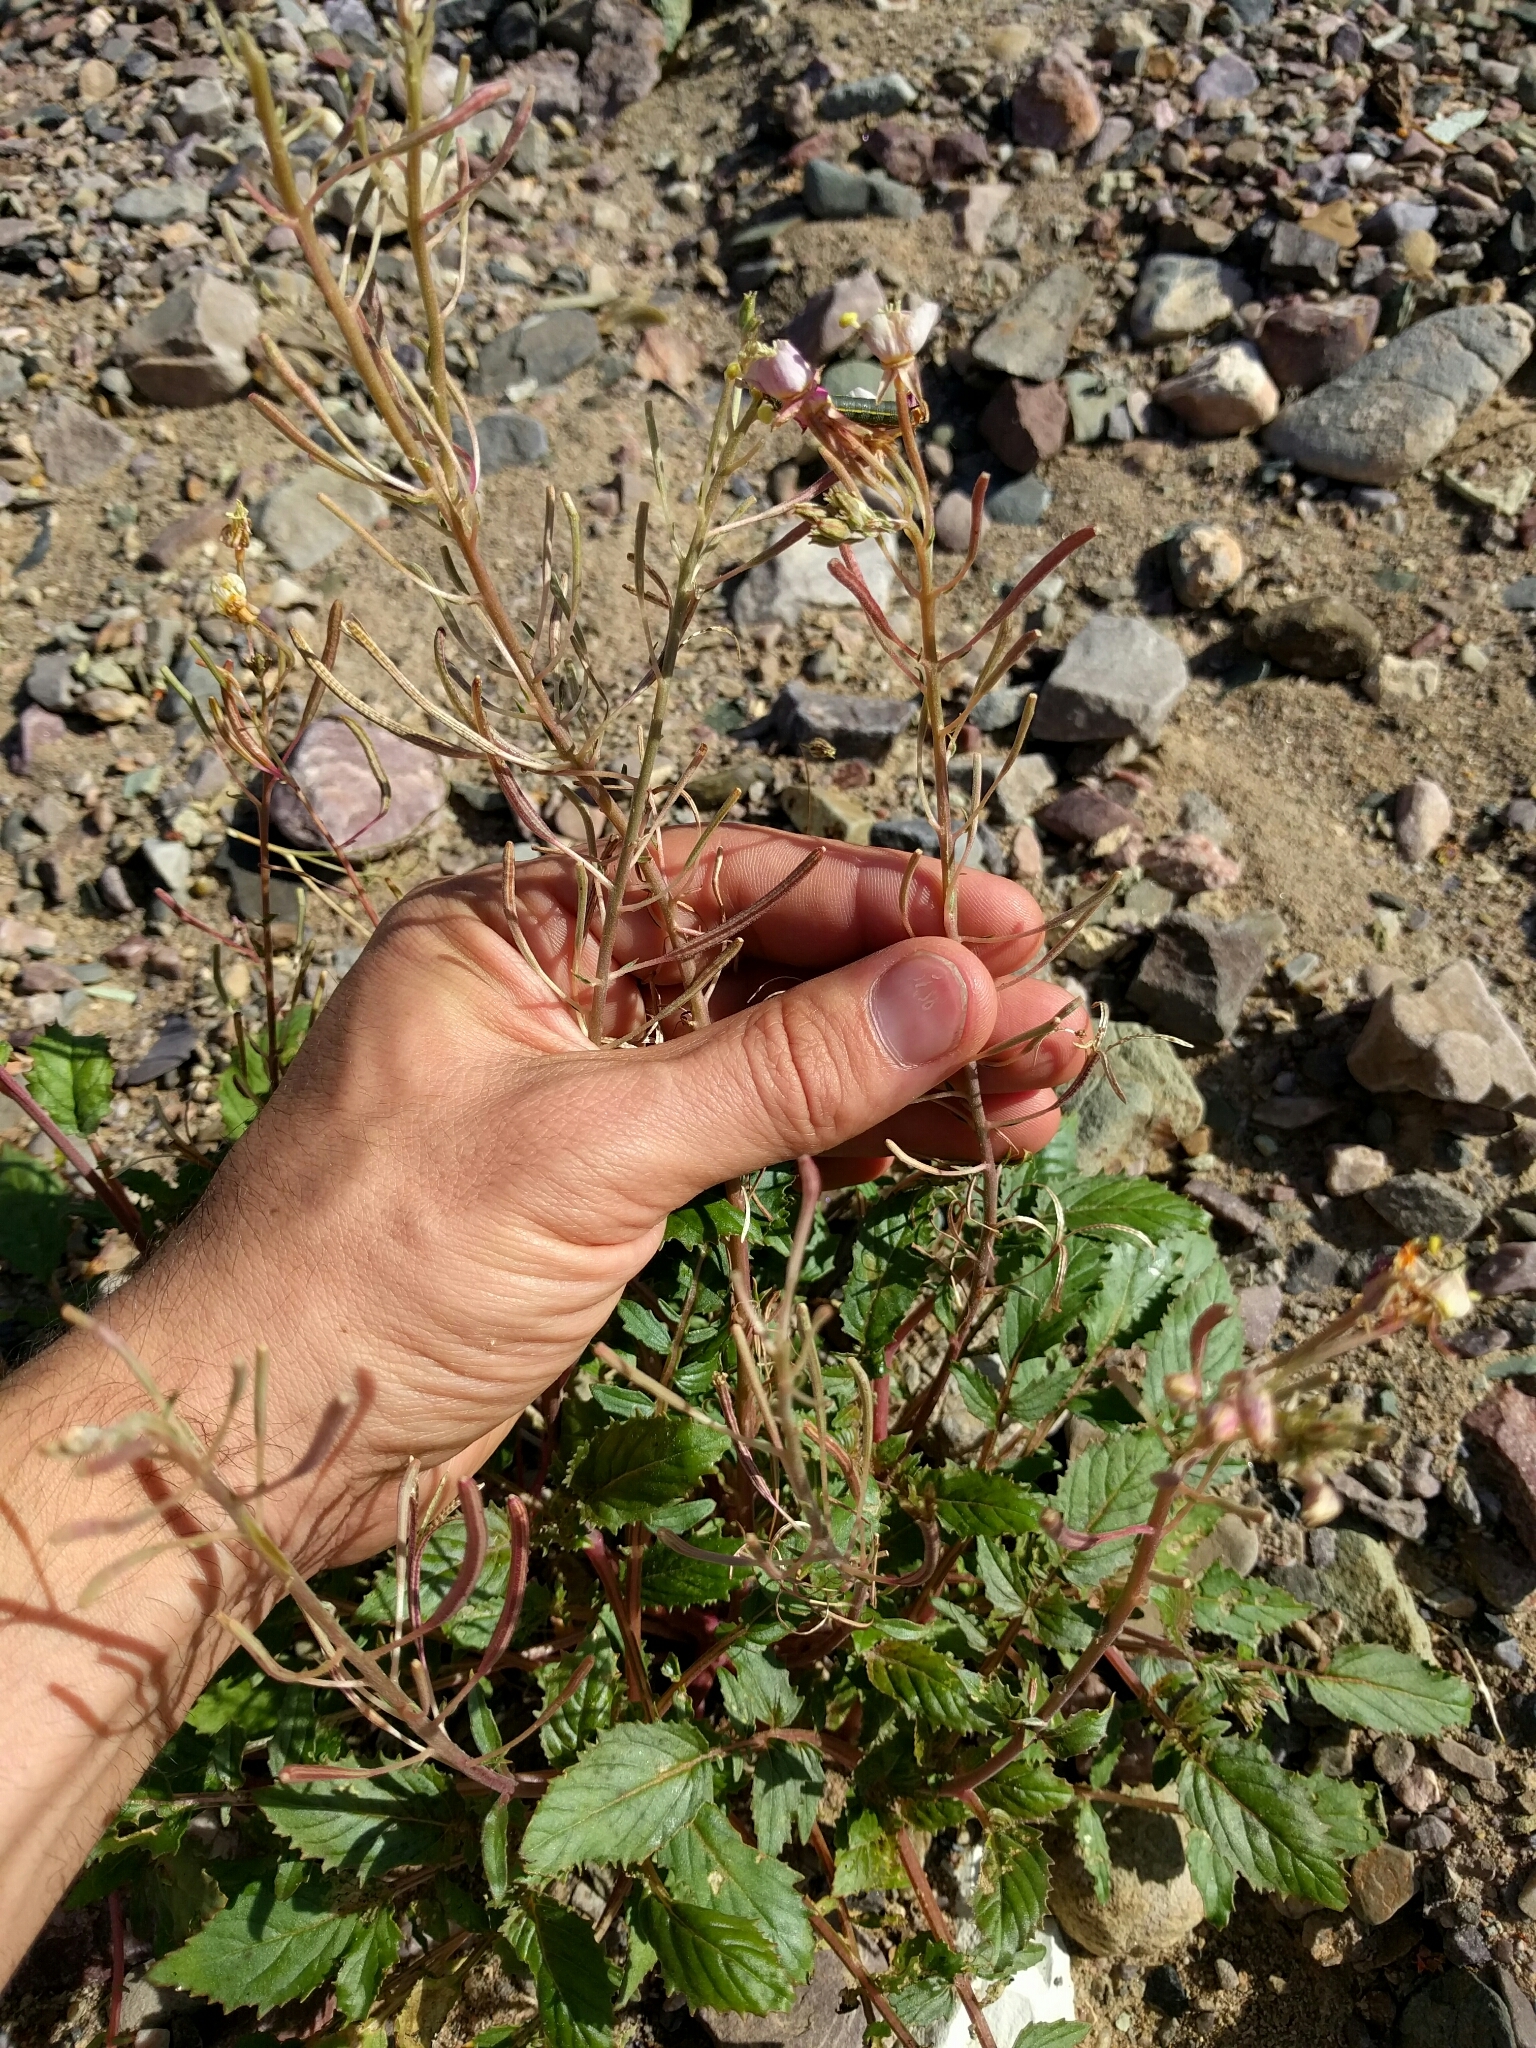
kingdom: Plantae
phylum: Tracheophyta
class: Magnoliopsida
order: Myrtales
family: Onagraceae
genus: Chylismia
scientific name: Chylismia claviformis
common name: Browneyes
